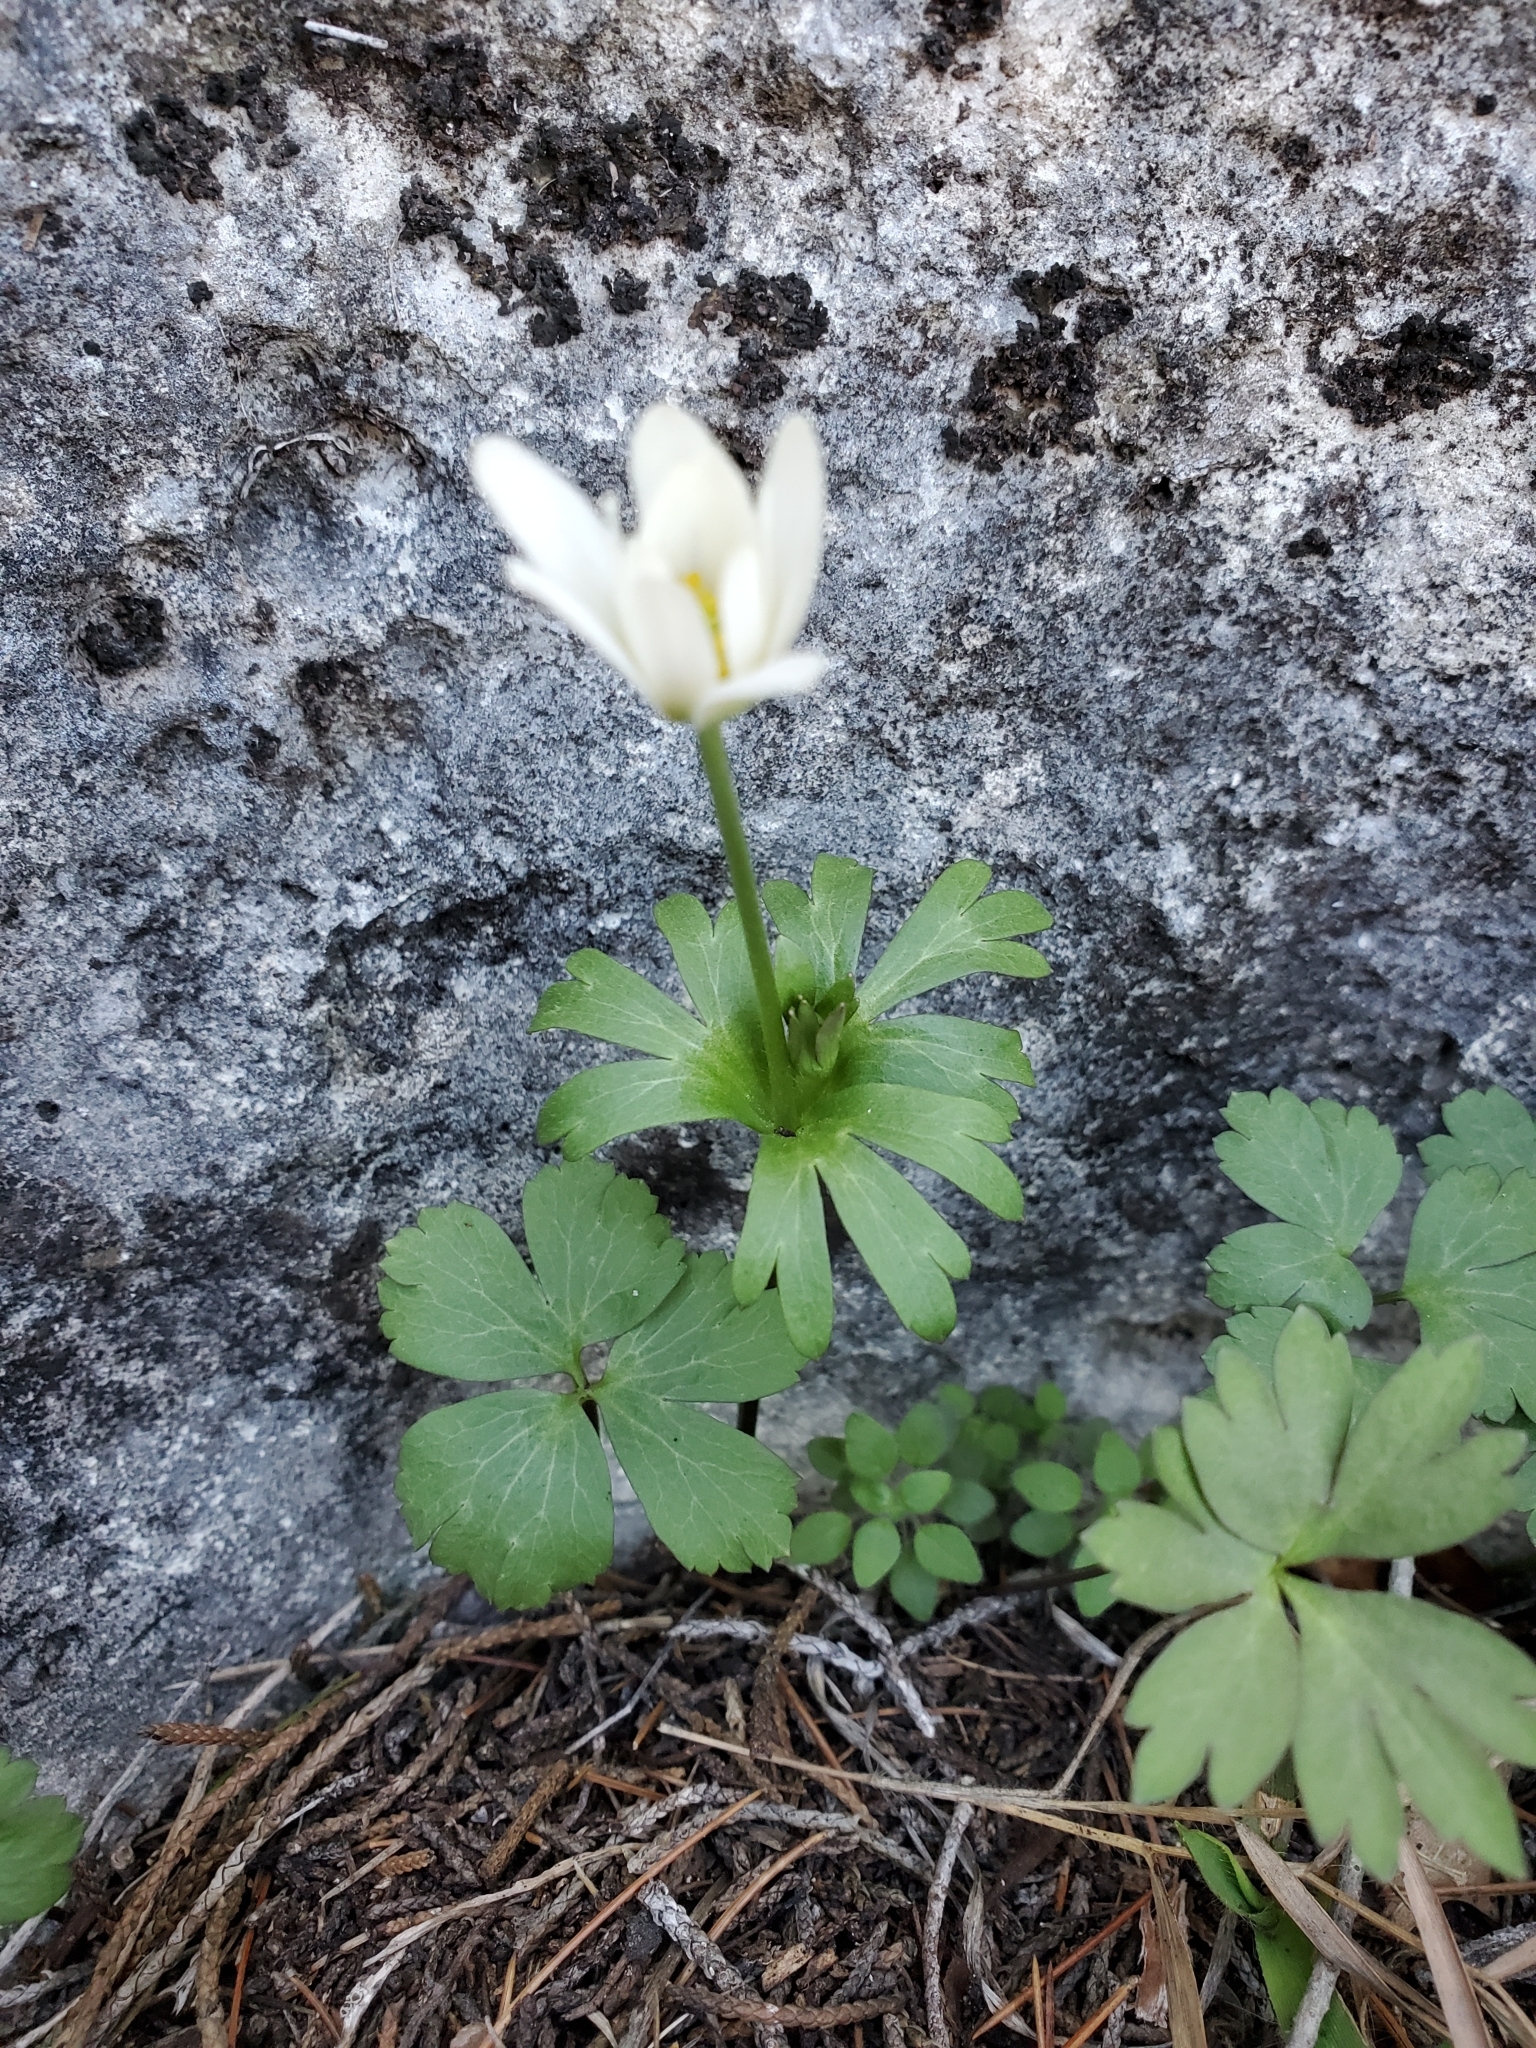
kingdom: Plantae
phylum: Tracheophyta
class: Magnoliopsida
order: Ranunculales
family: Ranunculaceae
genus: Anemone
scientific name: Anemone edwardsiana
